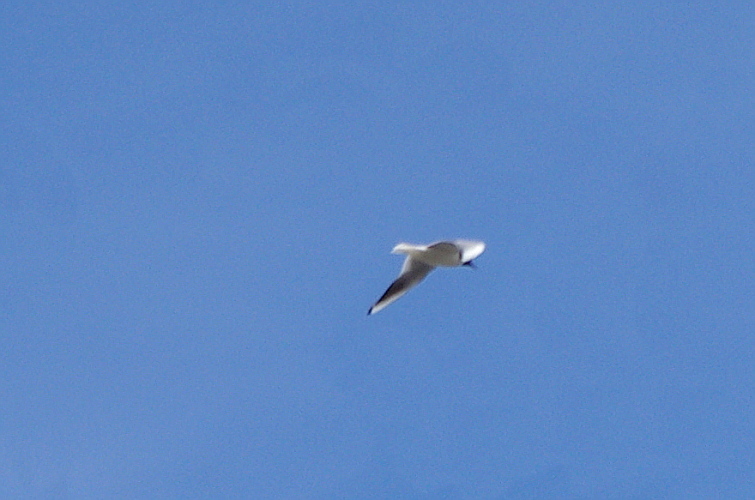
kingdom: Animalia
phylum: Chordata
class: Aves
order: Charadriiformes
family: Laridae
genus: Chroicocephalus
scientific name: Chroicocephalus ridibundus
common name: Black-headed gull
